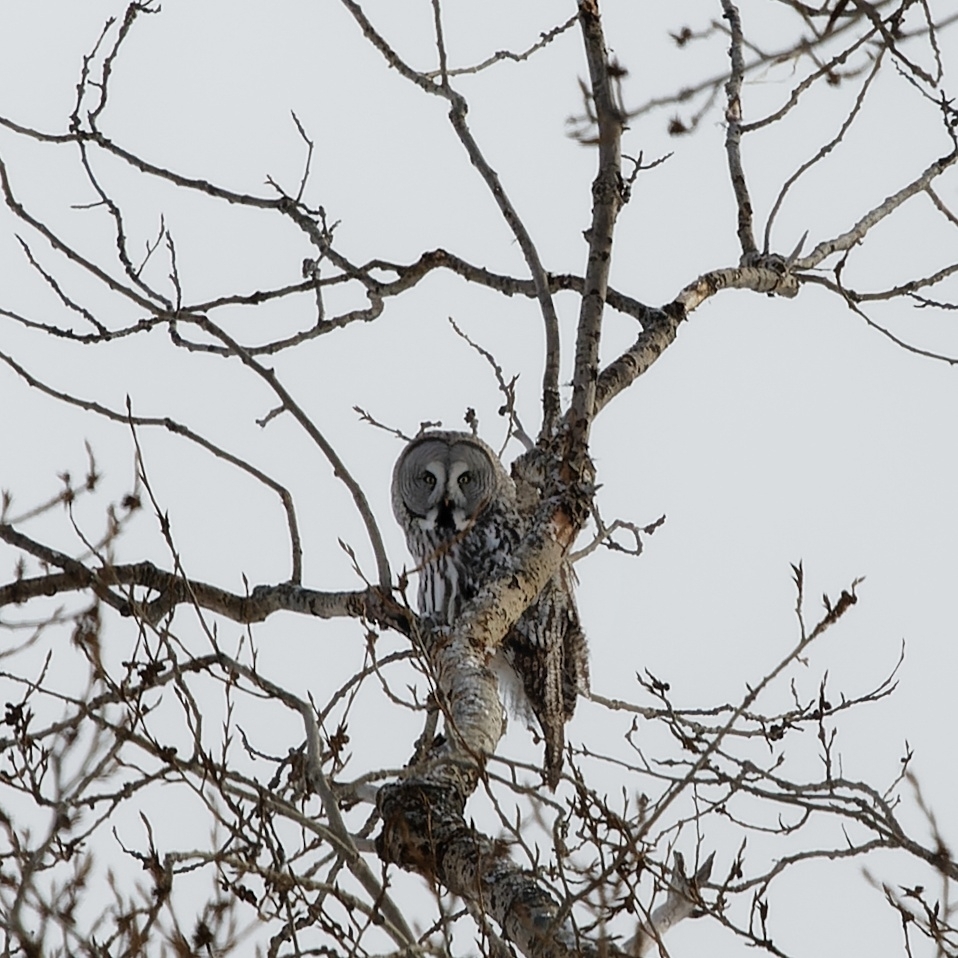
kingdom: Animalia
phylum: Chordata
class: Aves
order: Strigiformes
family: Strigidae
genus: Strix
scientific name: Strix nebulosa
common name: Great grey owl
